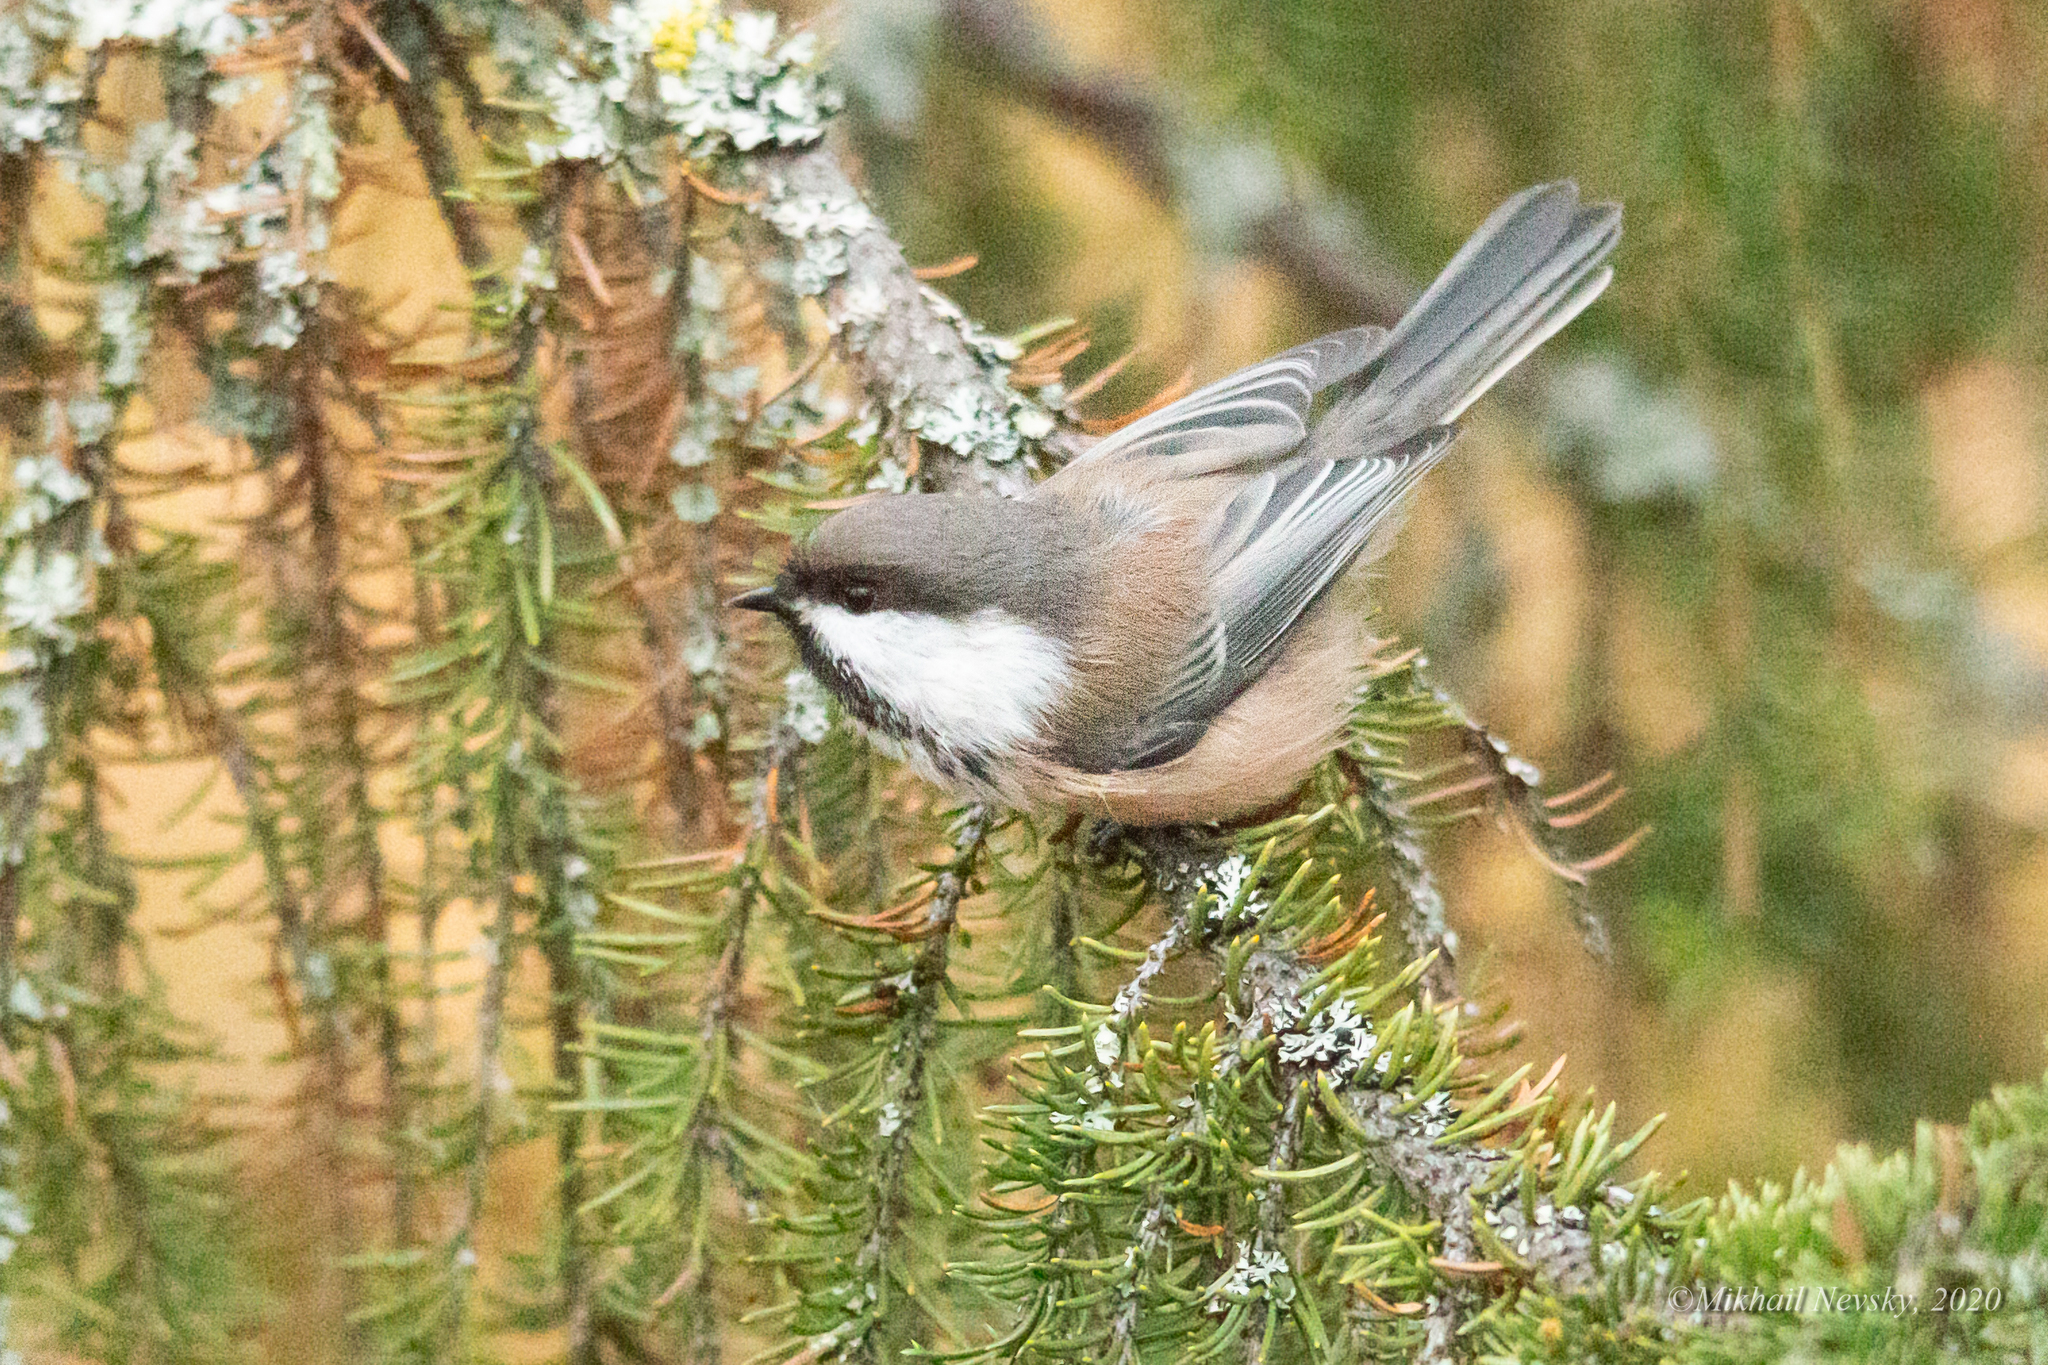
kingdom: Animalia
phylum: Chordata
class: Aves
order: Passeriformes
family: Paridae
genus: Poecile
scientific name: Poecile cinctus
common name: Gray-headed chickadee
